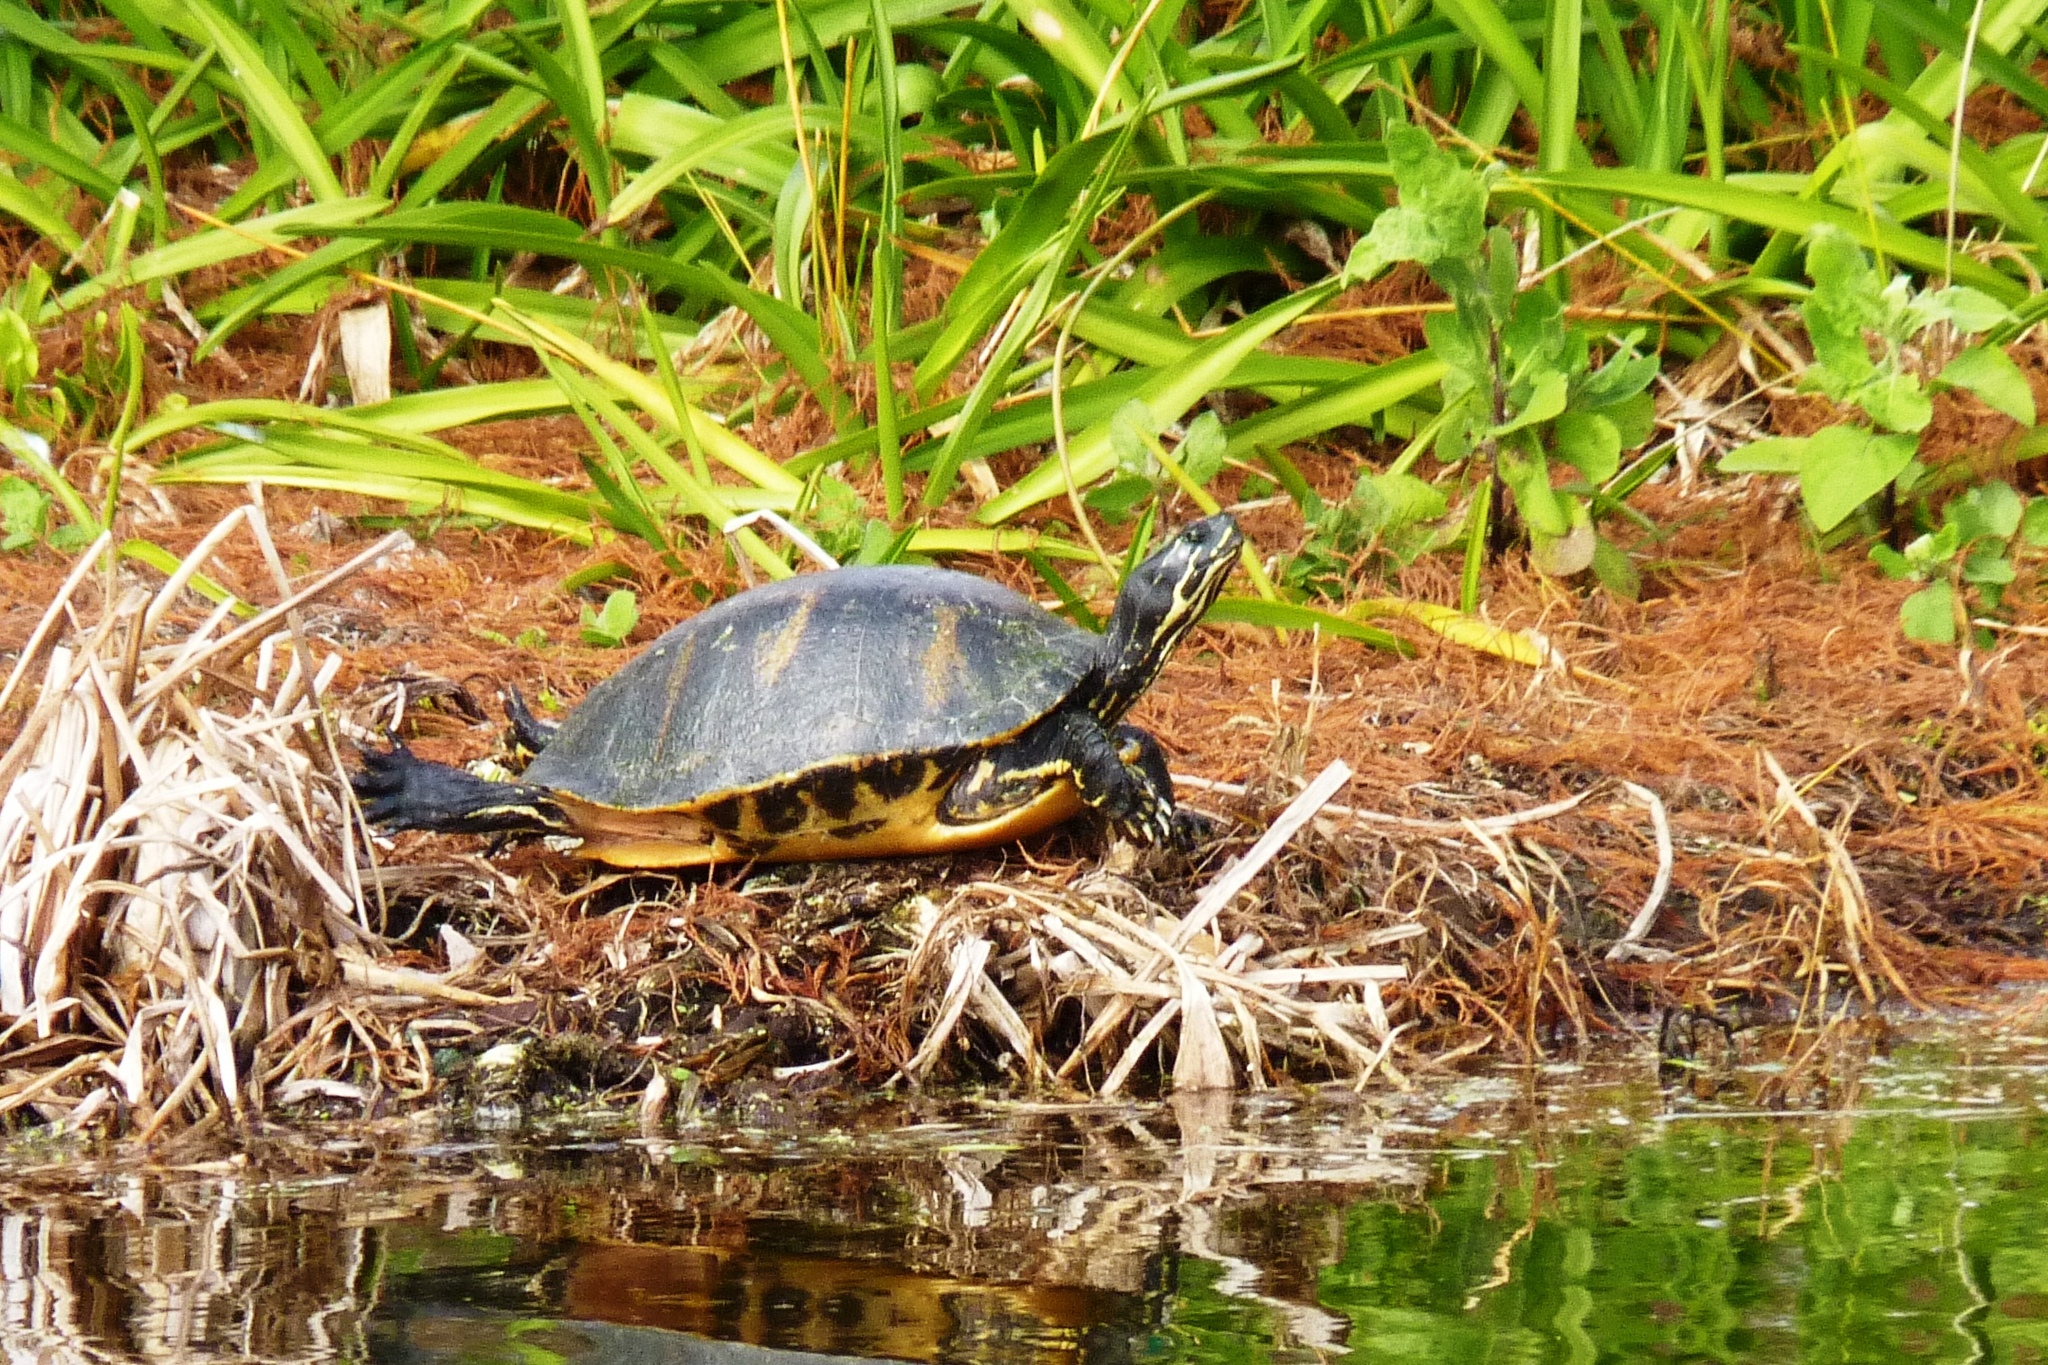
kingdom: Animalia
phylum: Chordata
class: Testudines
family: Emydidae
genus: Pseudemys
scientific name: Pseudemys nelsoni
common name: Florida red-bellied turtle
